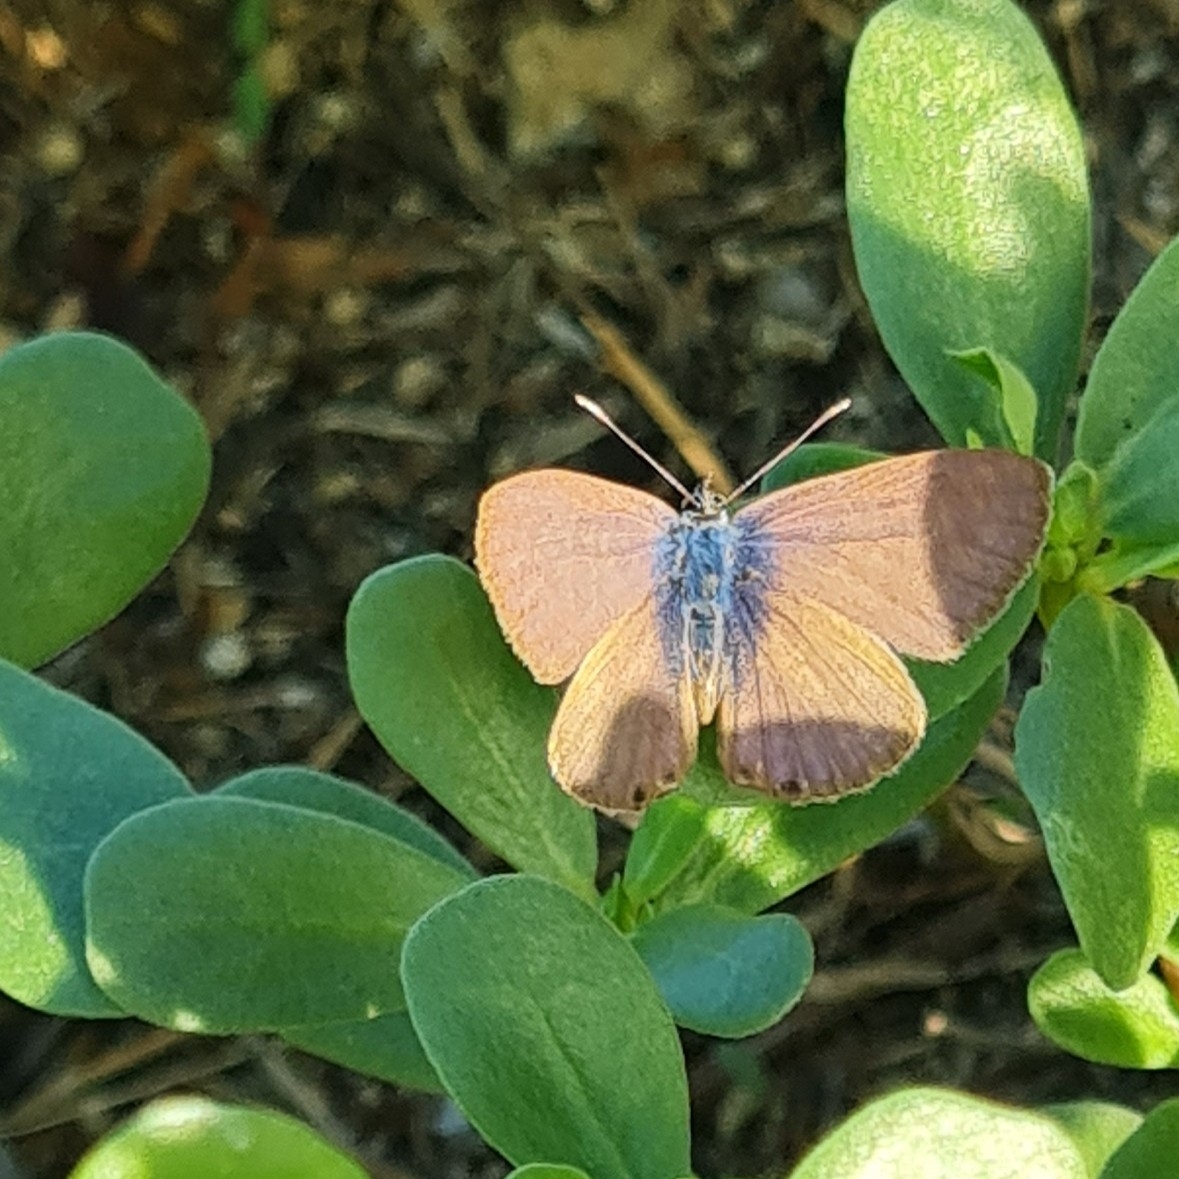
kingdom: Animalia
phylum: Arthropoda
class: Insecta
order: Lepidoptera
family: Lycaenidae
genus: Leptotes
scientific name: Leptotes pirithous
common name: Lang's short-tailed blue
